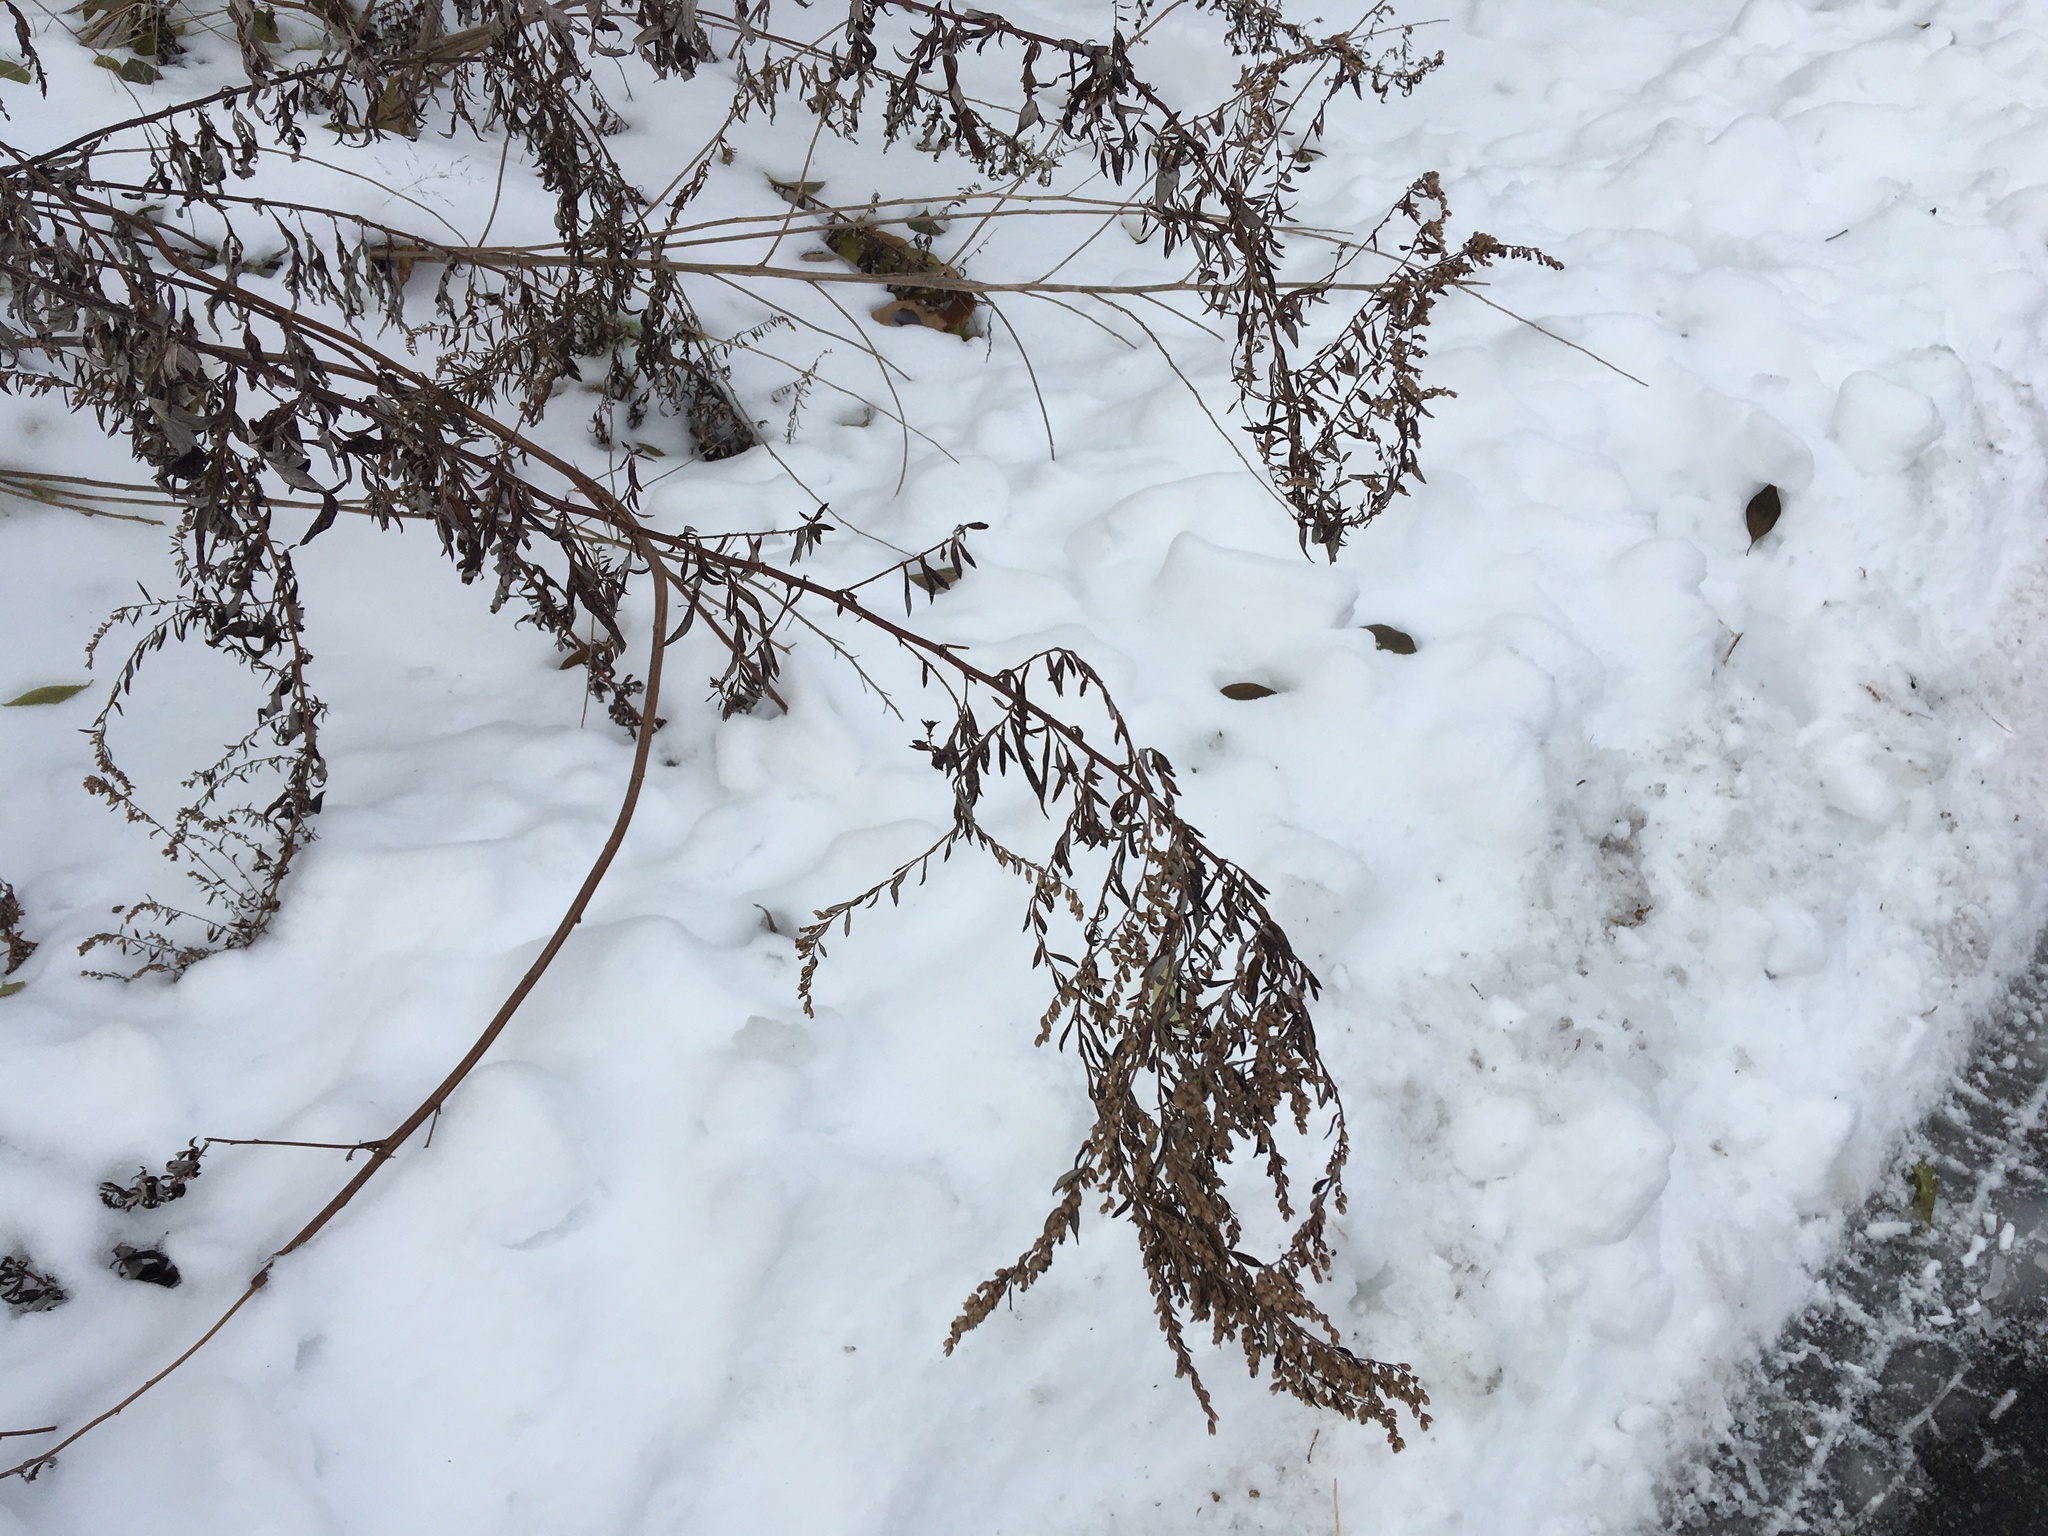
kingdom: Plantae
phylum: Tracheophyta
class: Magnoliopsida
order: Asterales
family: Asteraceae
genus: Artemisia
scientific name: Artemisia vulgaris
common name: Mugwort
